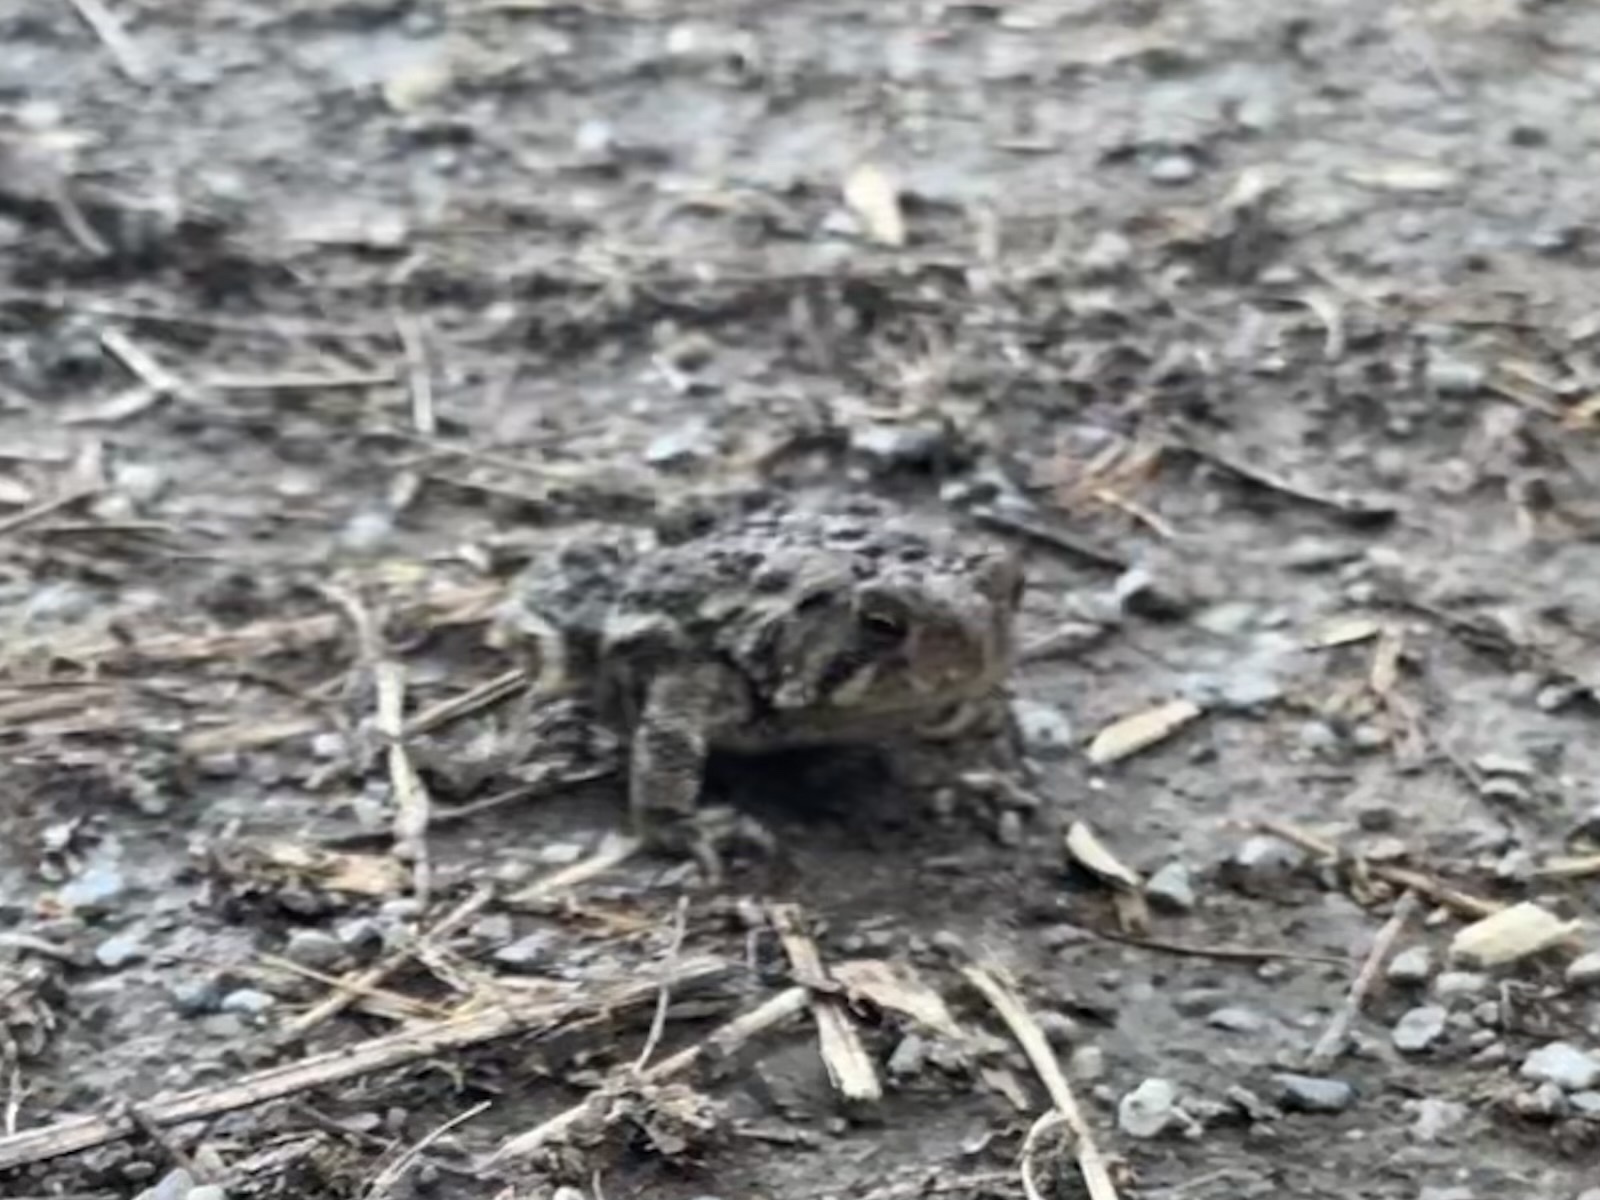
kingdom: Animalia
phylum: Chordata
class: Amphibia
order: Anura
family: Bufonidae
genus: Anaxyrus
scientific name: Anaxyrus americanus
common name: American toad
